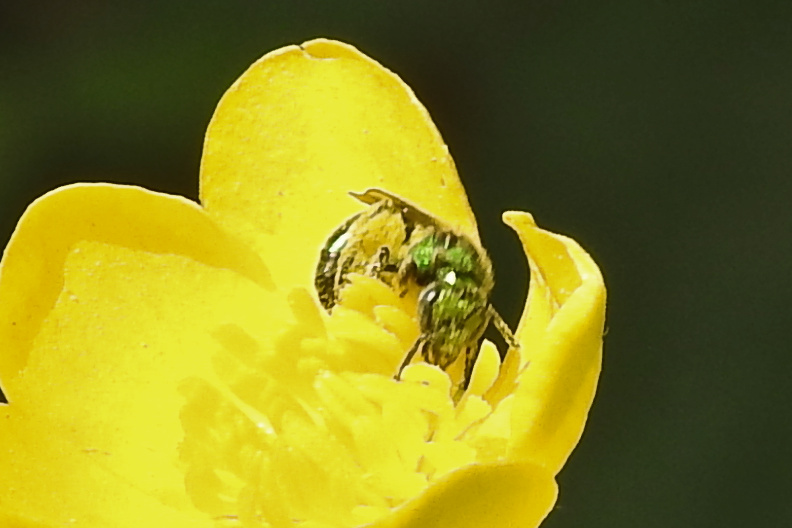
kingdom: Animalia
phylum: Arthropoda
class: Insecta
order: Hymenoptera
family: Halictidae
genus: Augochlora
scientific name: Augochlora pura
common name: Pure green sweat bee
